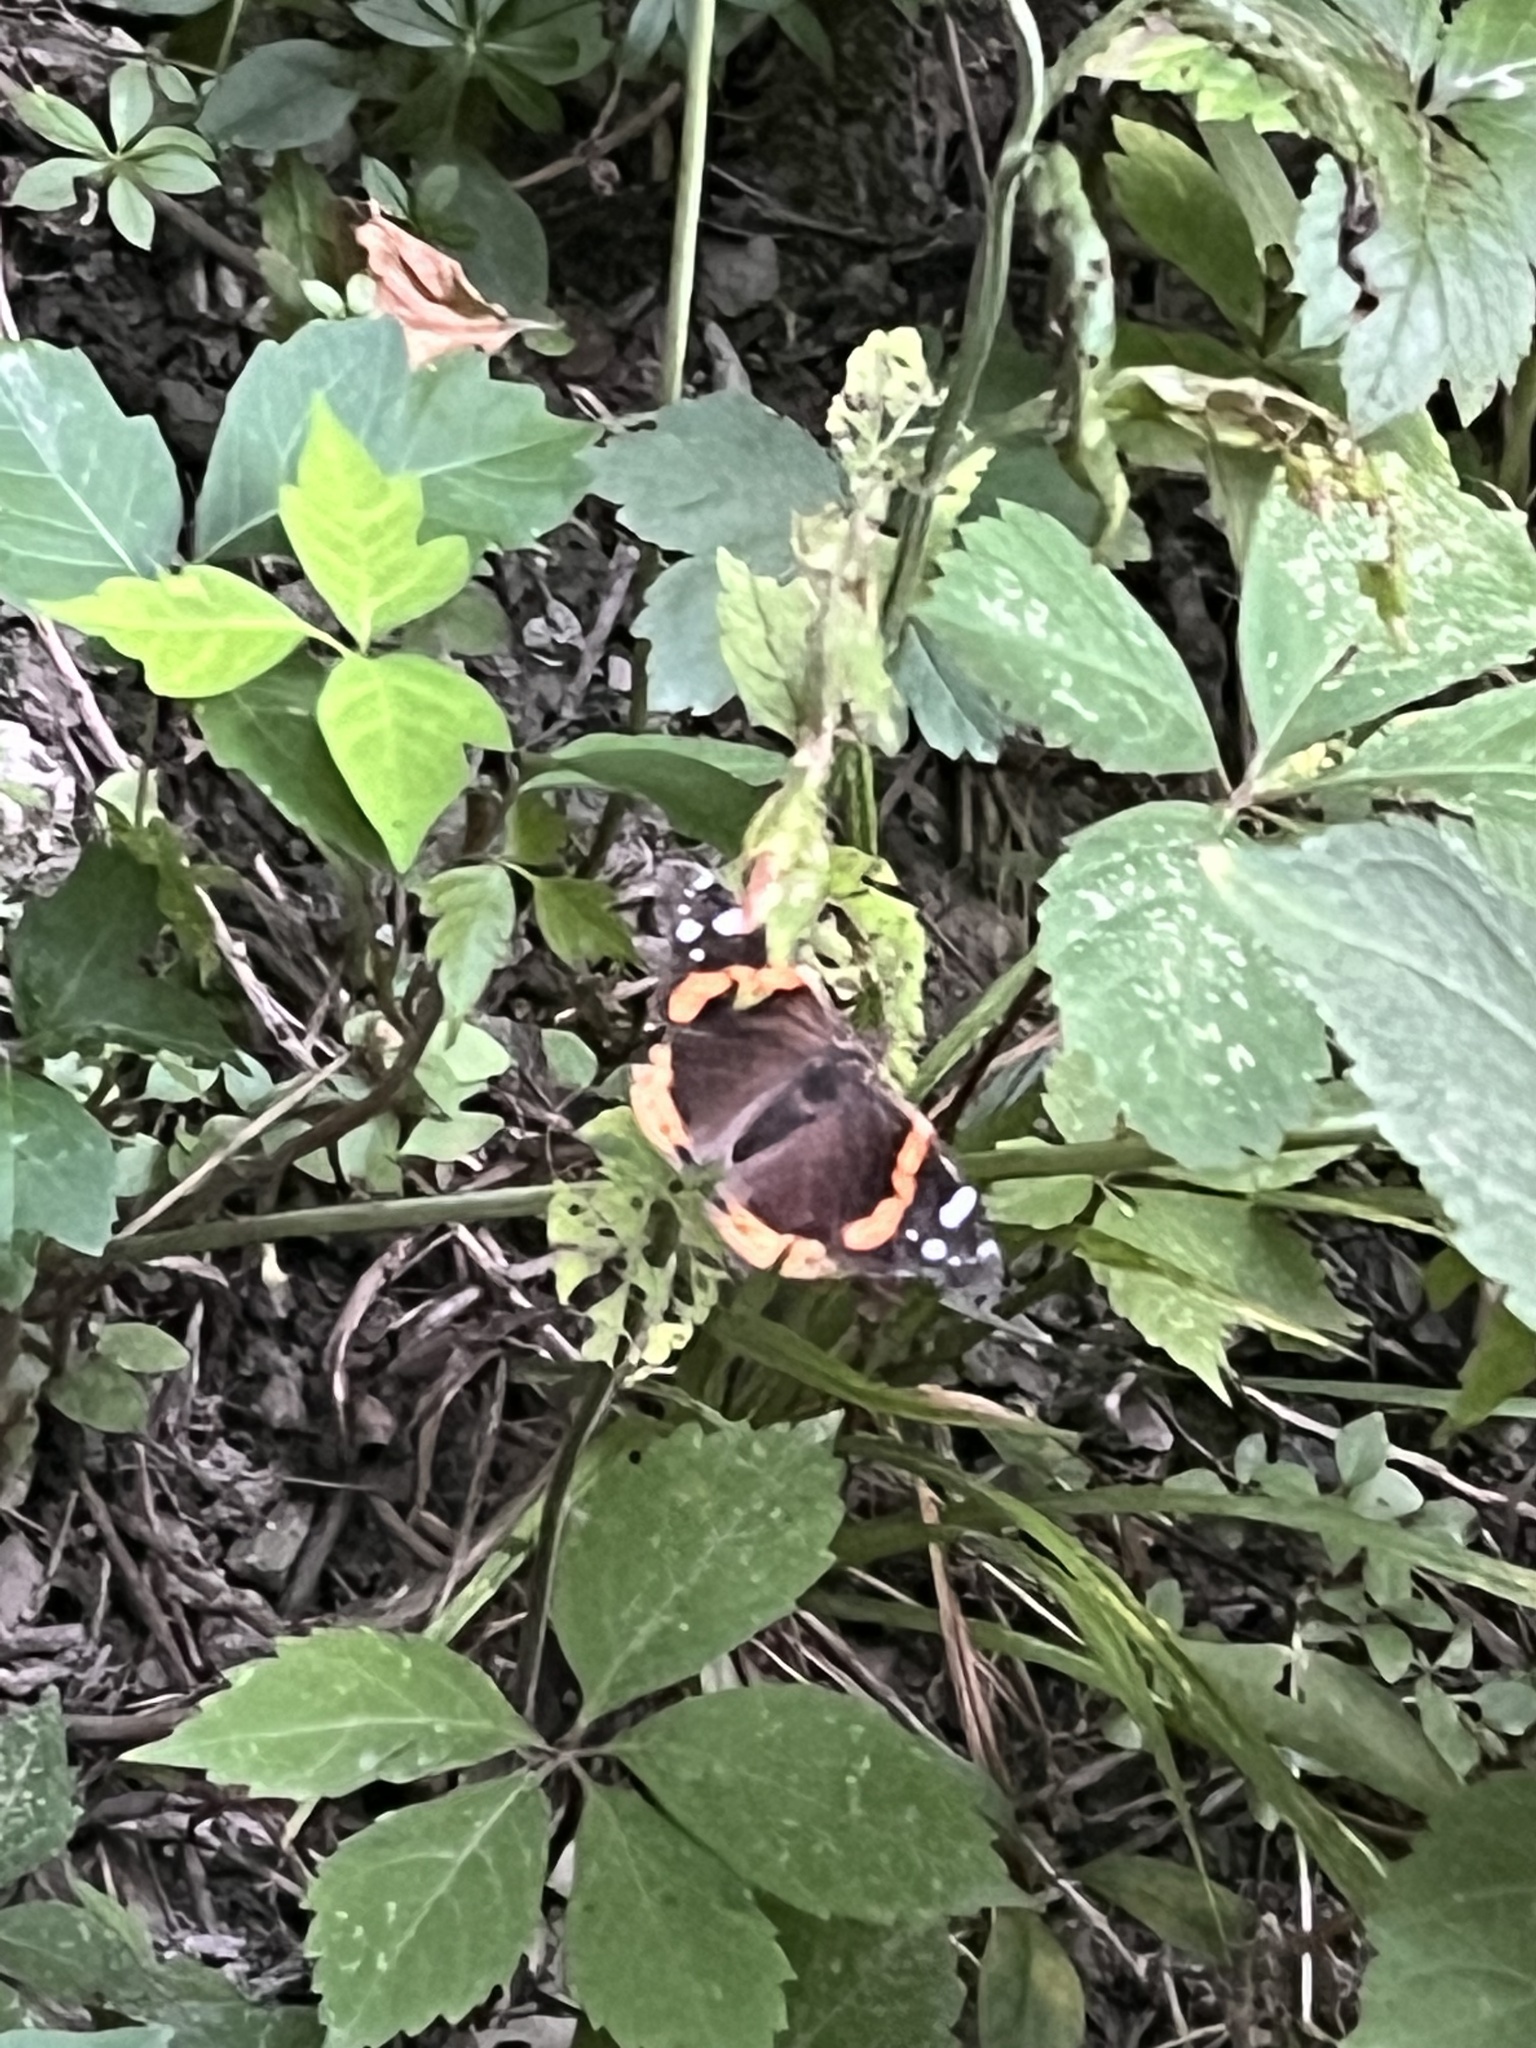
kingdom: Animalia
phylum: Arthropoda
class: Insecta
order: Lepidoptera
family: Nymphalidae
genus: Vanessa
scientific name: Vanessa atalanta
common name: Red admiral
